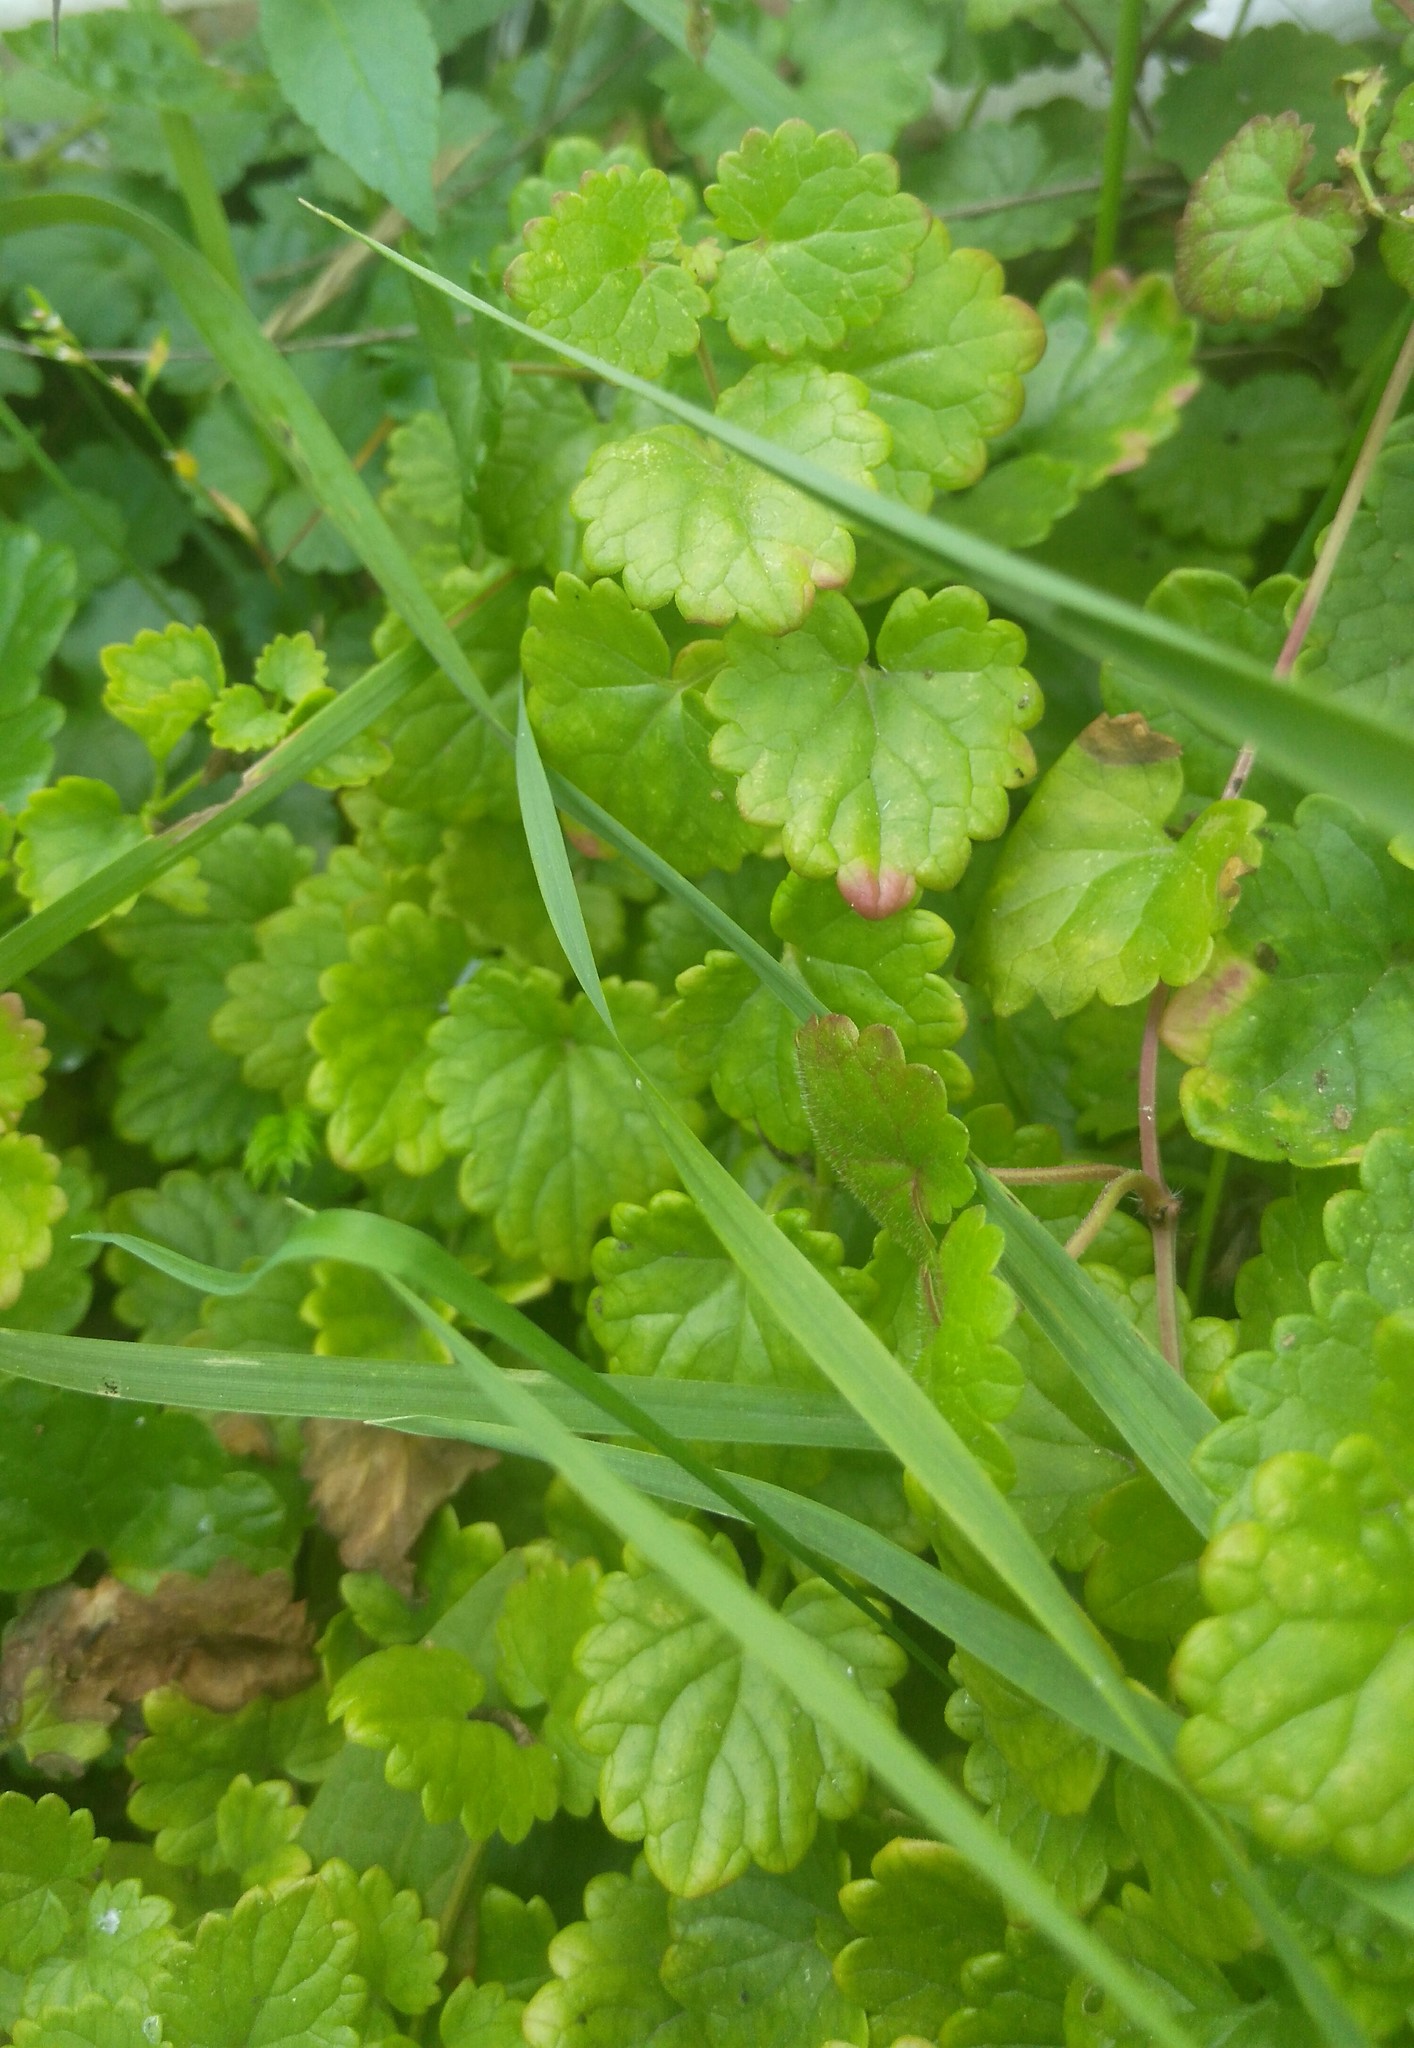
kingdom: Plantae
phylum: Tracheophyta
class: Magnoliopsida
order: Lamiales
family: Lamiaceae
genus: Glechoma
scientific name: Glechoma hederacea
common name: Ground ivy
